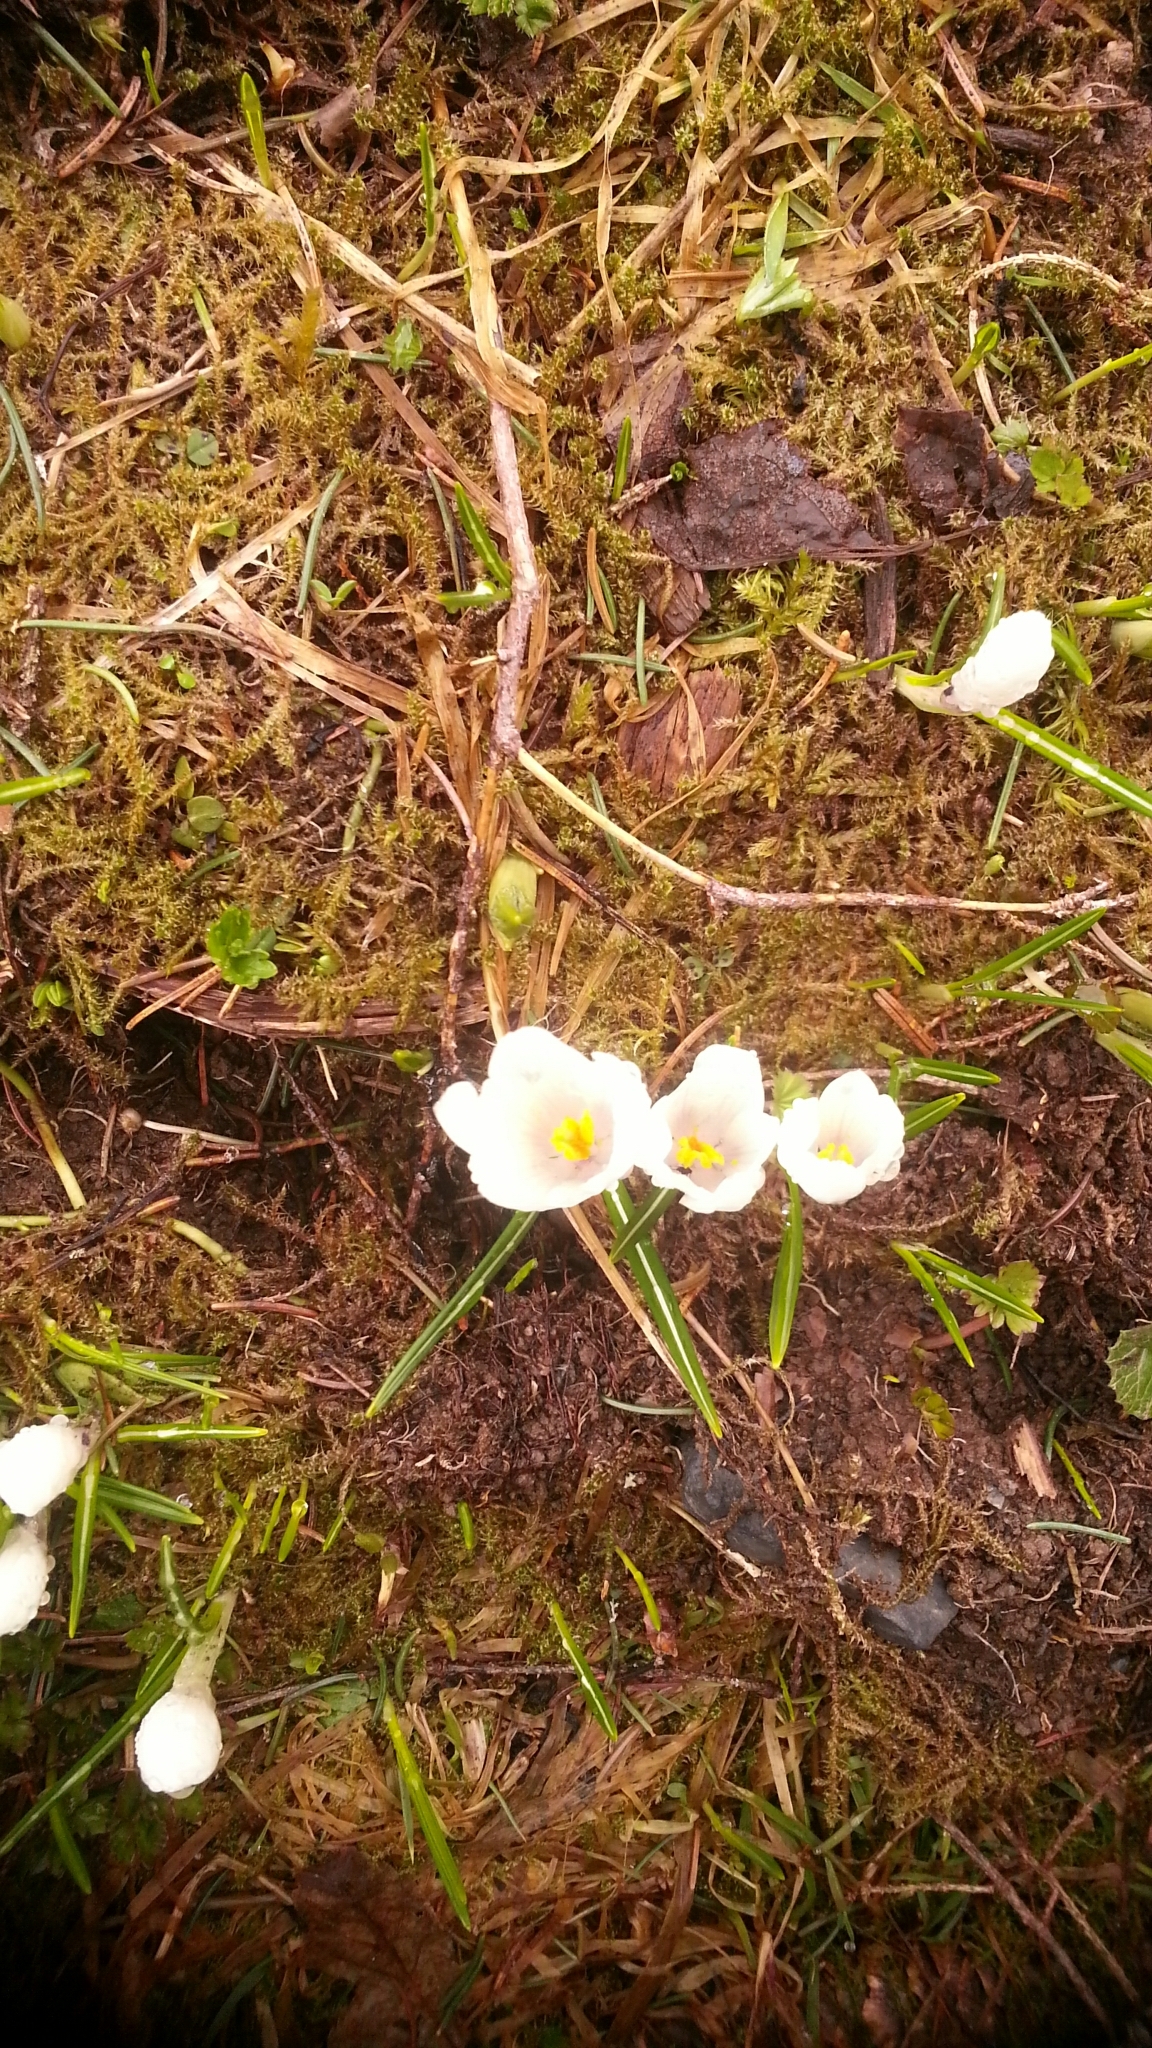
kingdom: Plantae
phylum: Tracheophyta
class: Liliopsida
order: Asparagales
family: Iridaceae
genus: Crocus
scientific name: Crocus vernus
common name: Spring crocus
